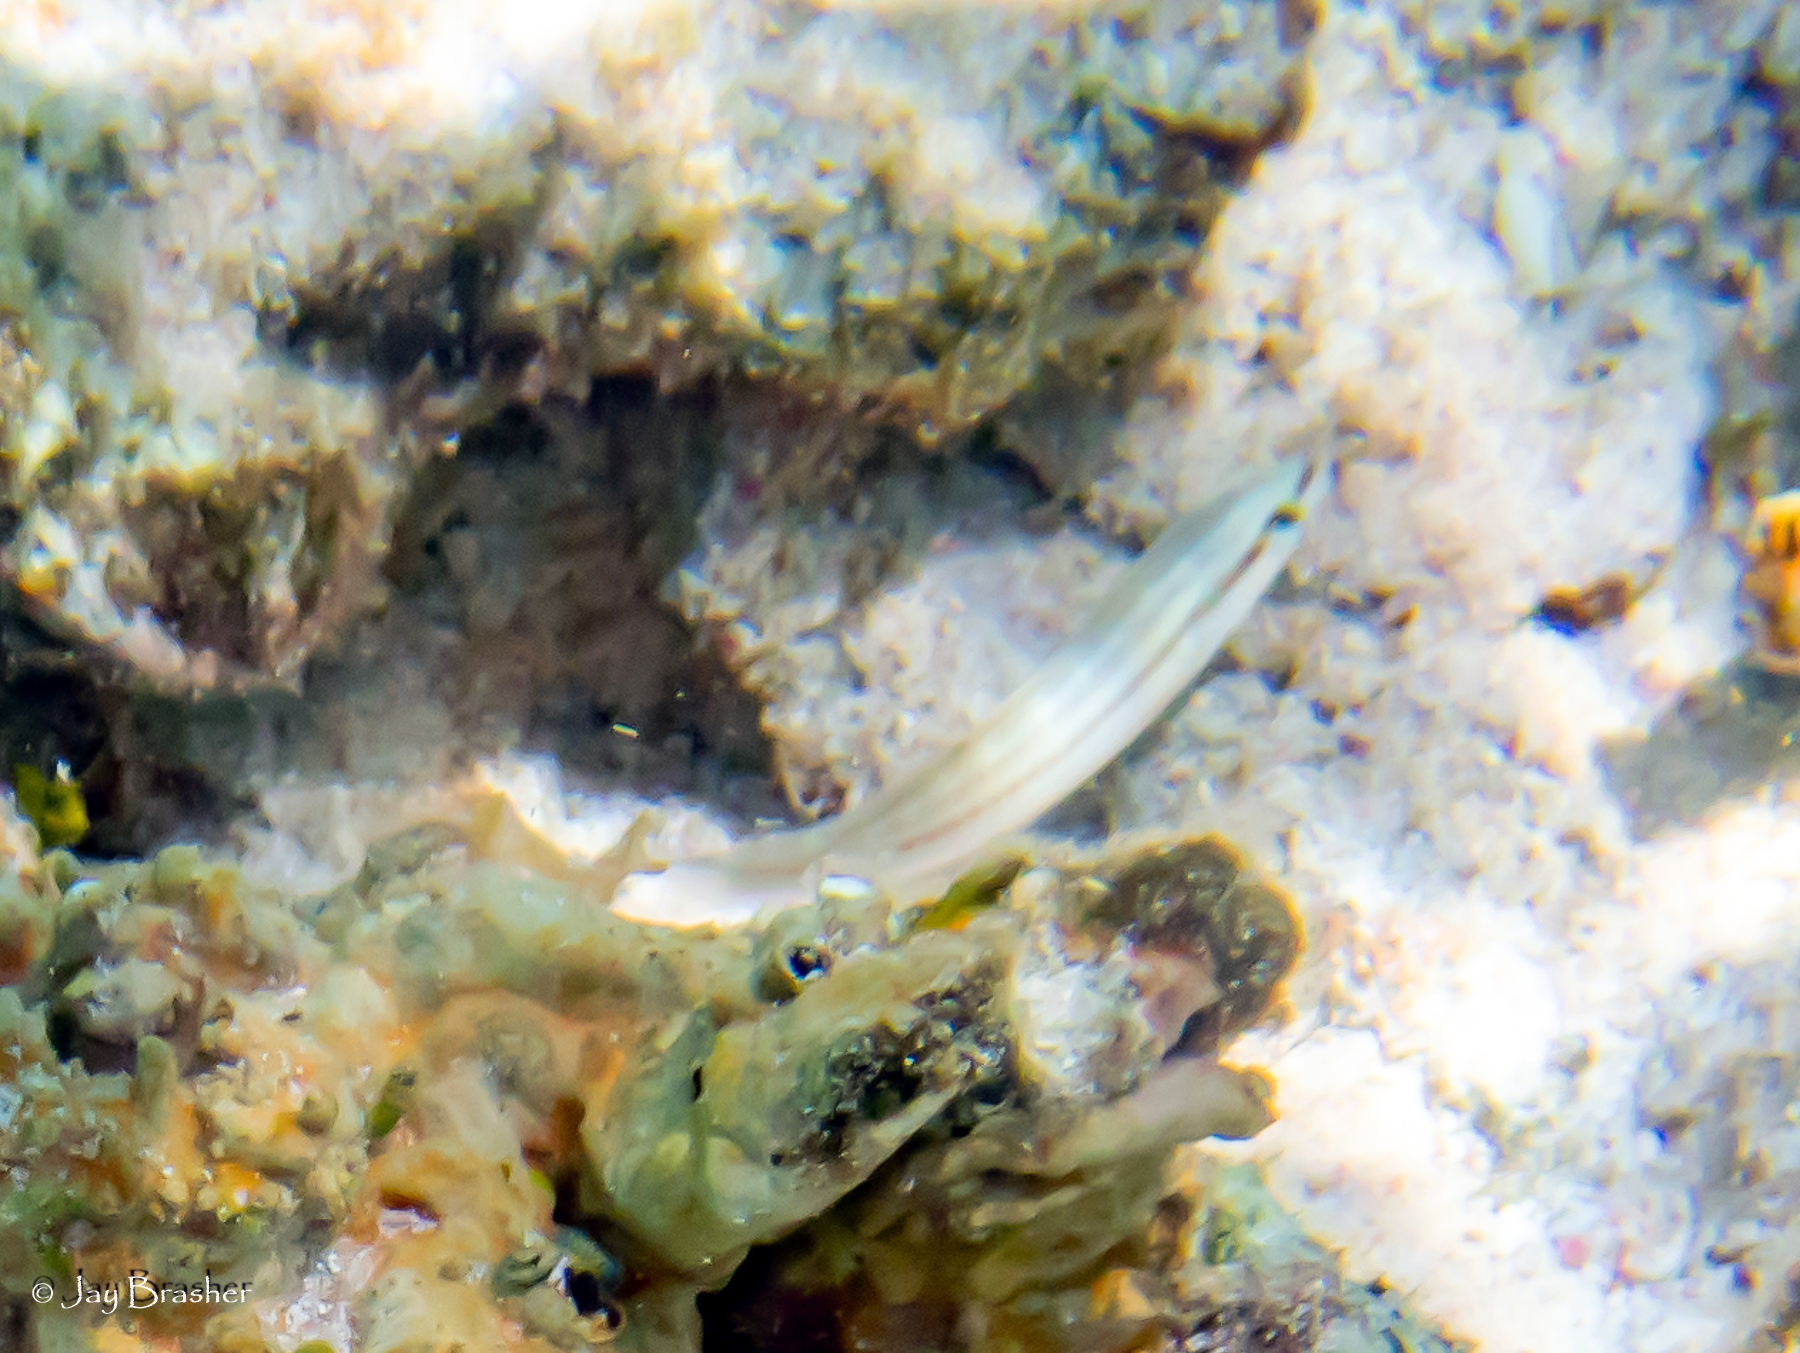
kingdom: Animalia
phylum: Chordata
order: Perciformes
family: Labridae
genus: Halichoeres
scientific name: Halichoeres bivittatus
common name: Slippery dick
